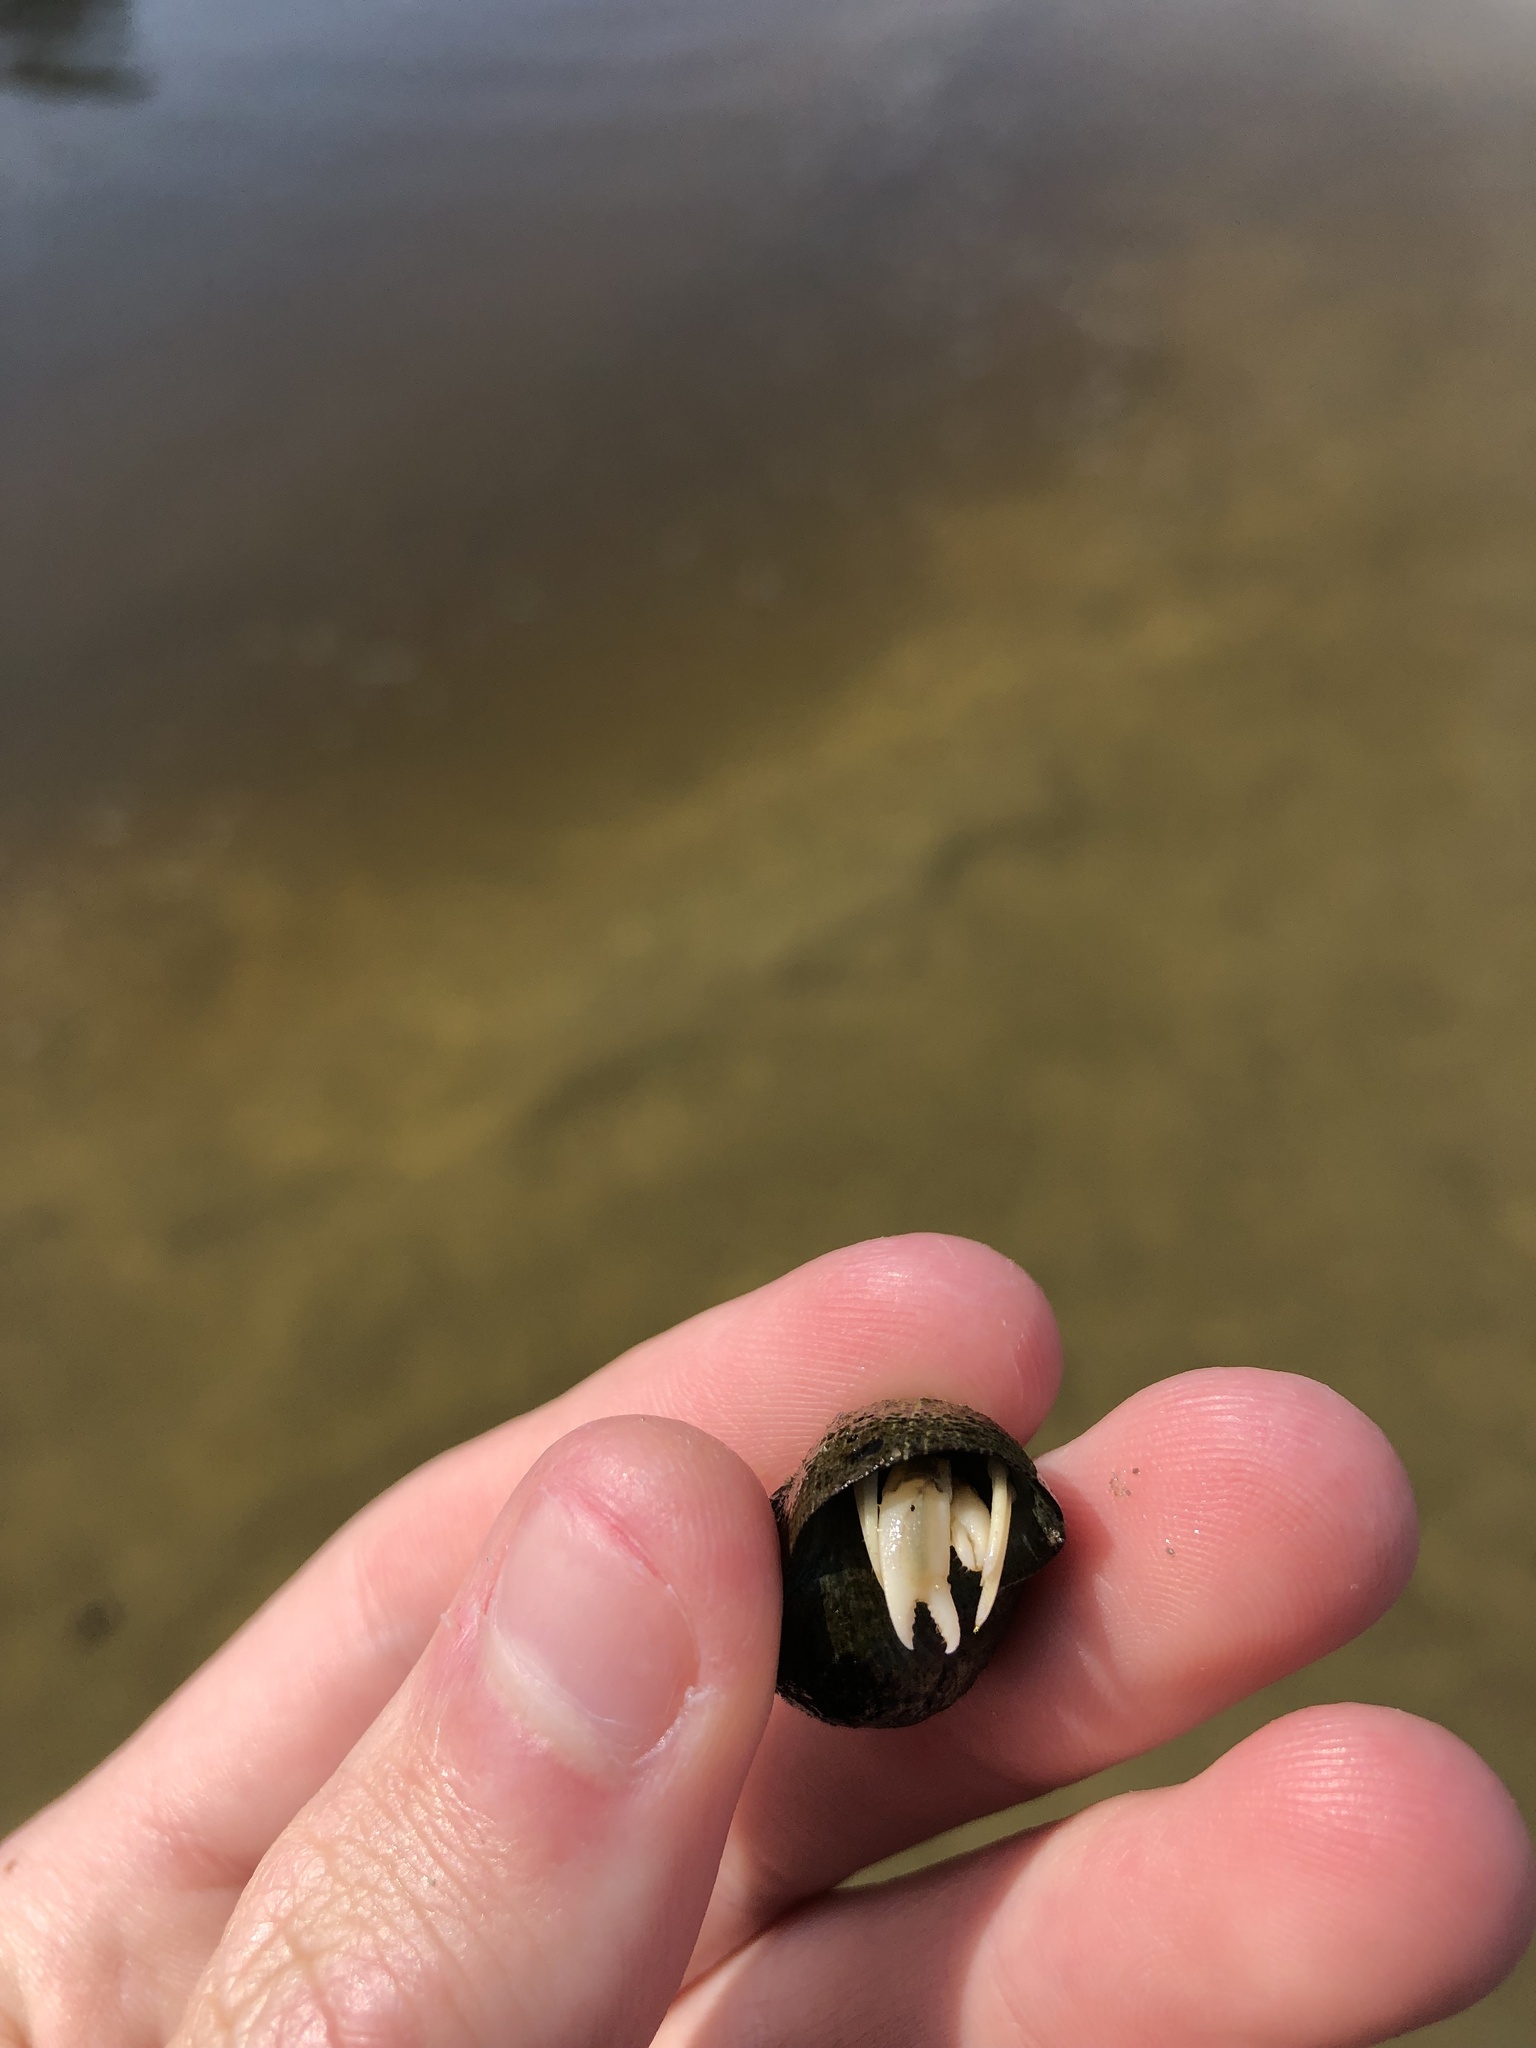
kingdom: Animalia
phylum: Arthropoda
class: Malacostraca
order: Decapoda
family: Paguridae
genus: Pagurus
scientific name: Pagurus longicarpus
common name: Long-armed hermit crab
